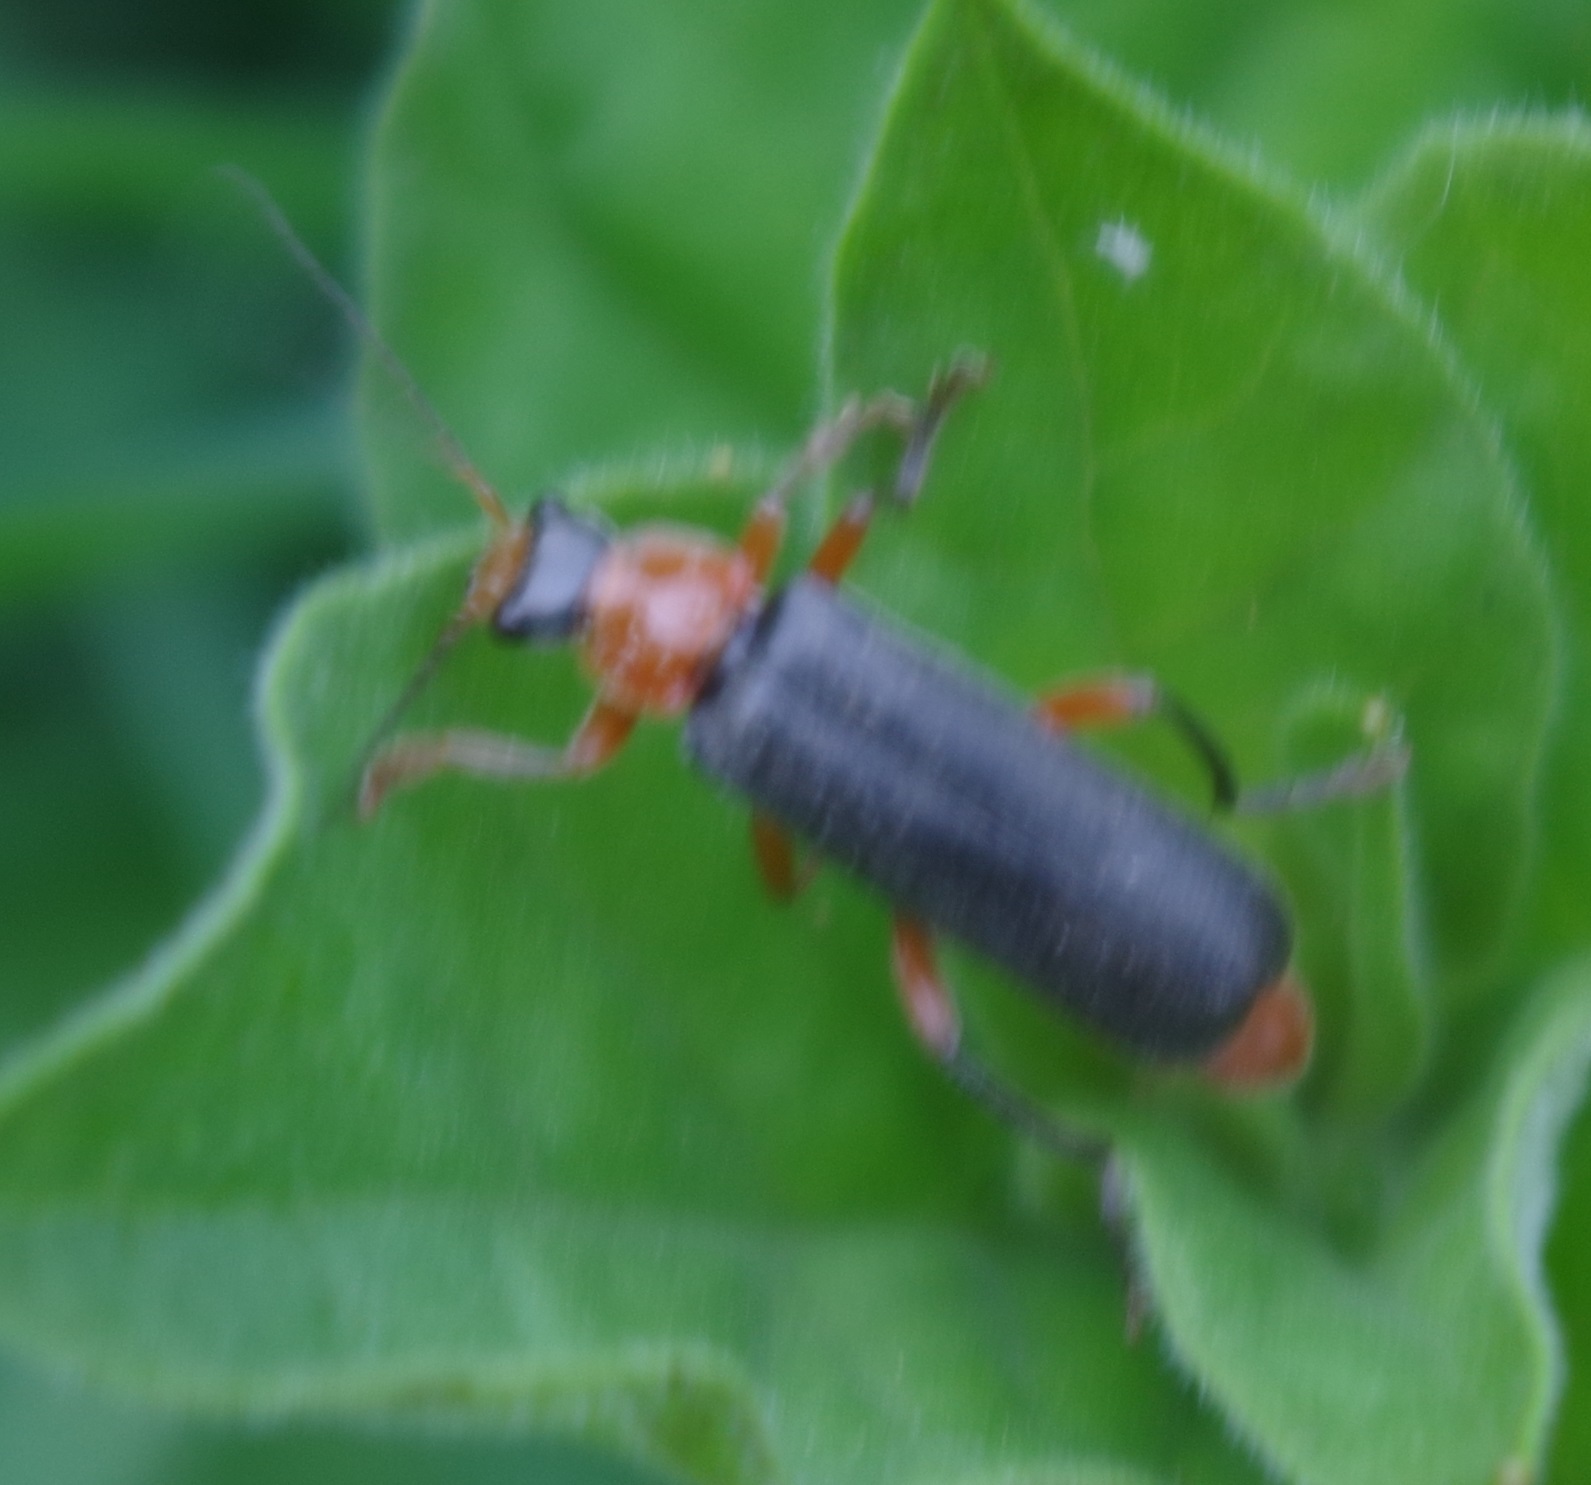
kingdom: Animalia
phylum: Arthropoda
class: Insecta
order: Coleoptera
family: Cantharidae
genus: Cantharis
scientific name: Cantharis pellucida
